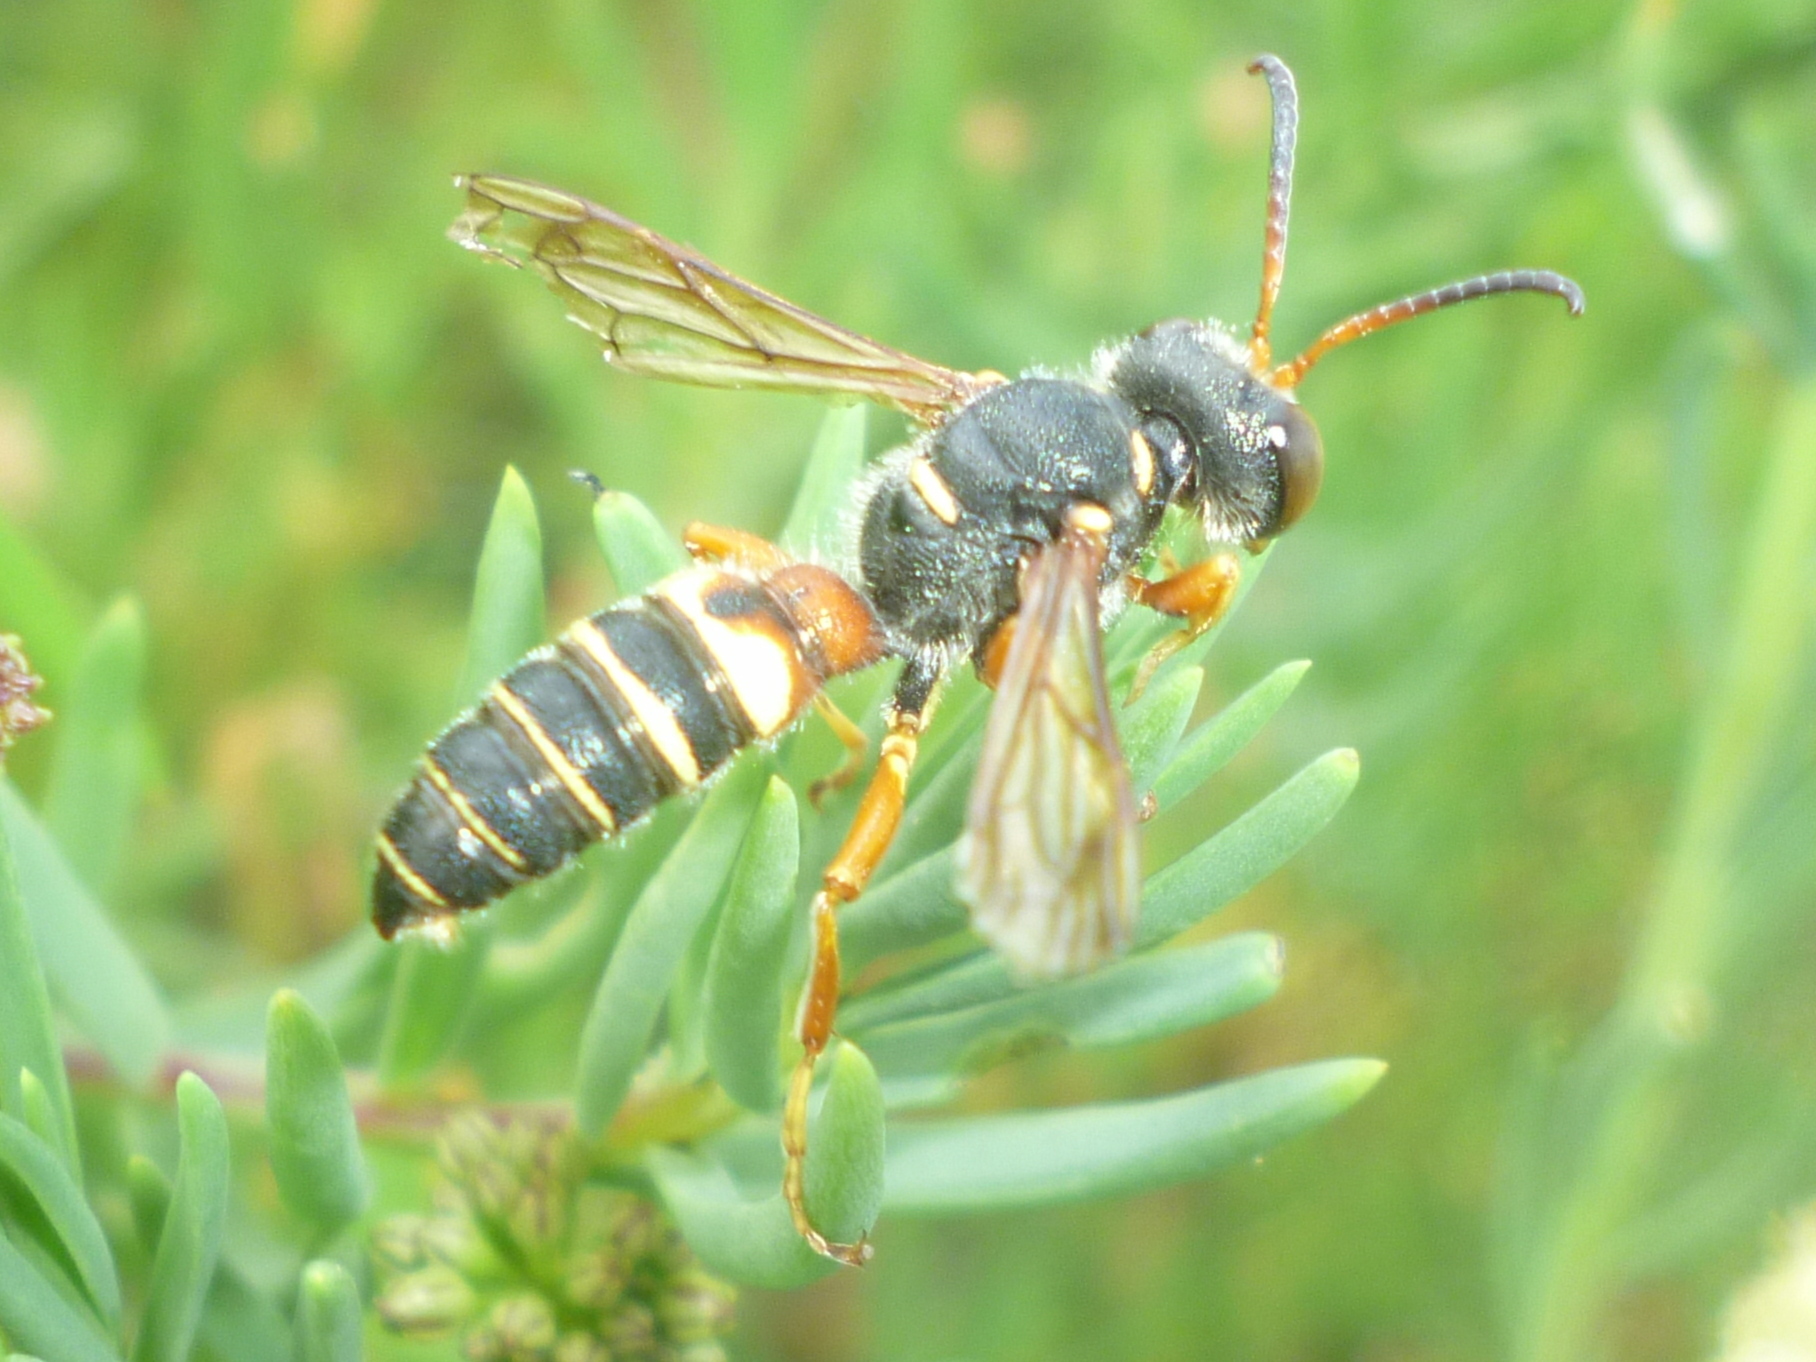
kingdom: Animalia
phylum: Arthropoda
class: Insecta
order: Hymenoptera
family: Crabronidae
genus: Cerceris
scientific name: Cerceris bicornuta
